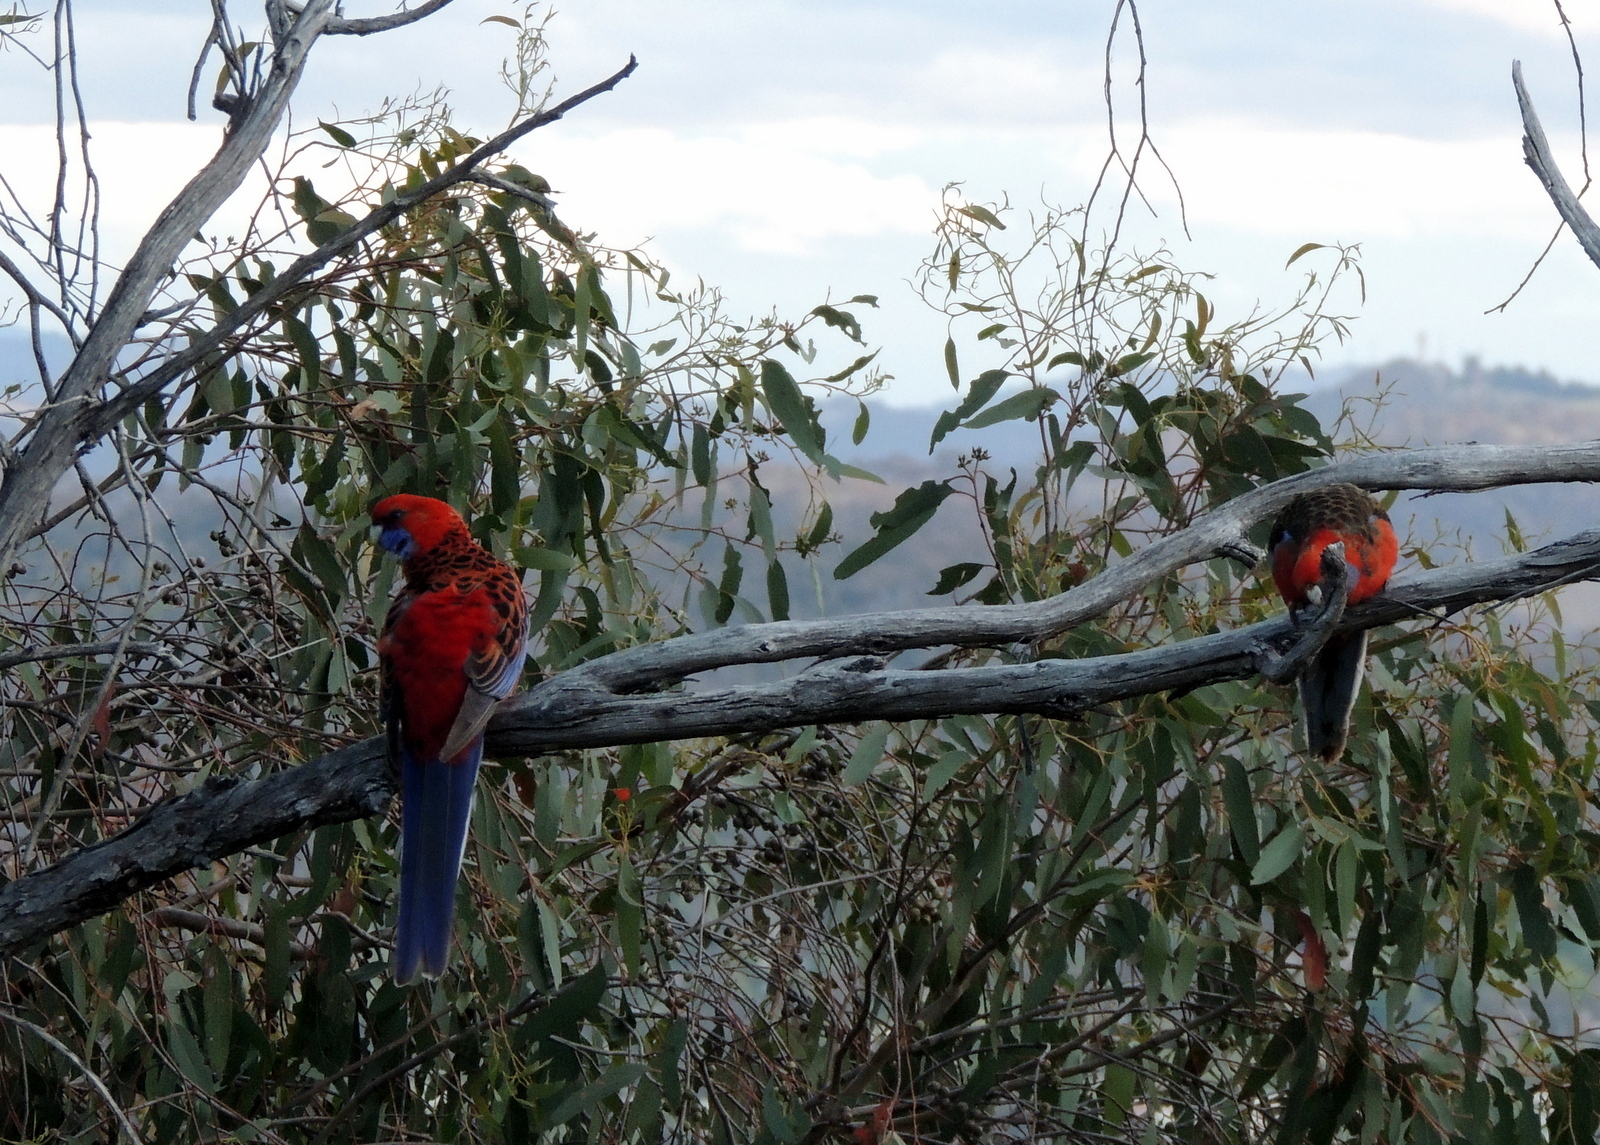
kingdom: Animalia
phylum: Chordata
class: Aves
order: Psittaciformes
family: Psittacidae
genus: Platycercus
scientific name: Platycercus elegans
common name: Crimson rosella
